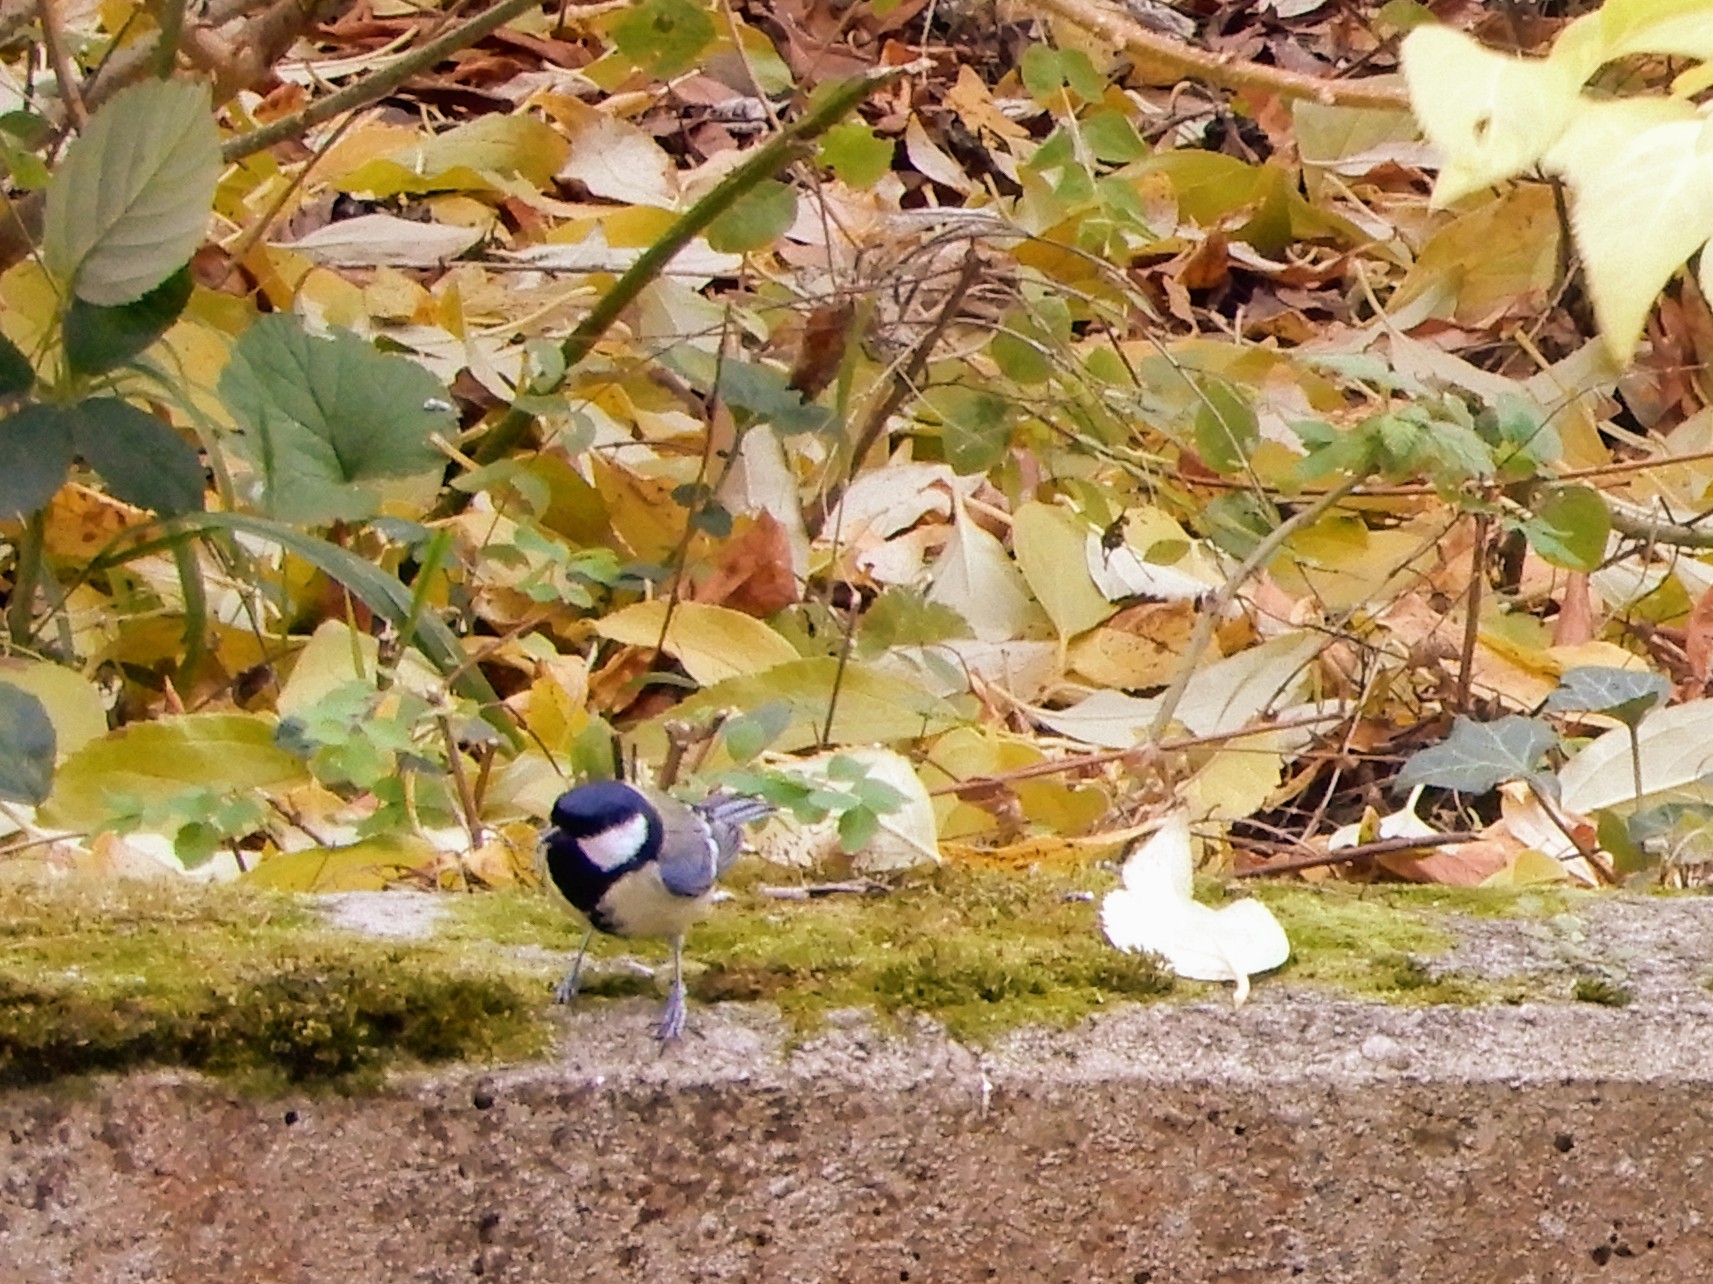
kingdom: Animalia
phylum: Chordata
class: Aves
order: Passeriformes
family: Paridae
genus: Parus
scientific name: Parus major
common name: Great tit
